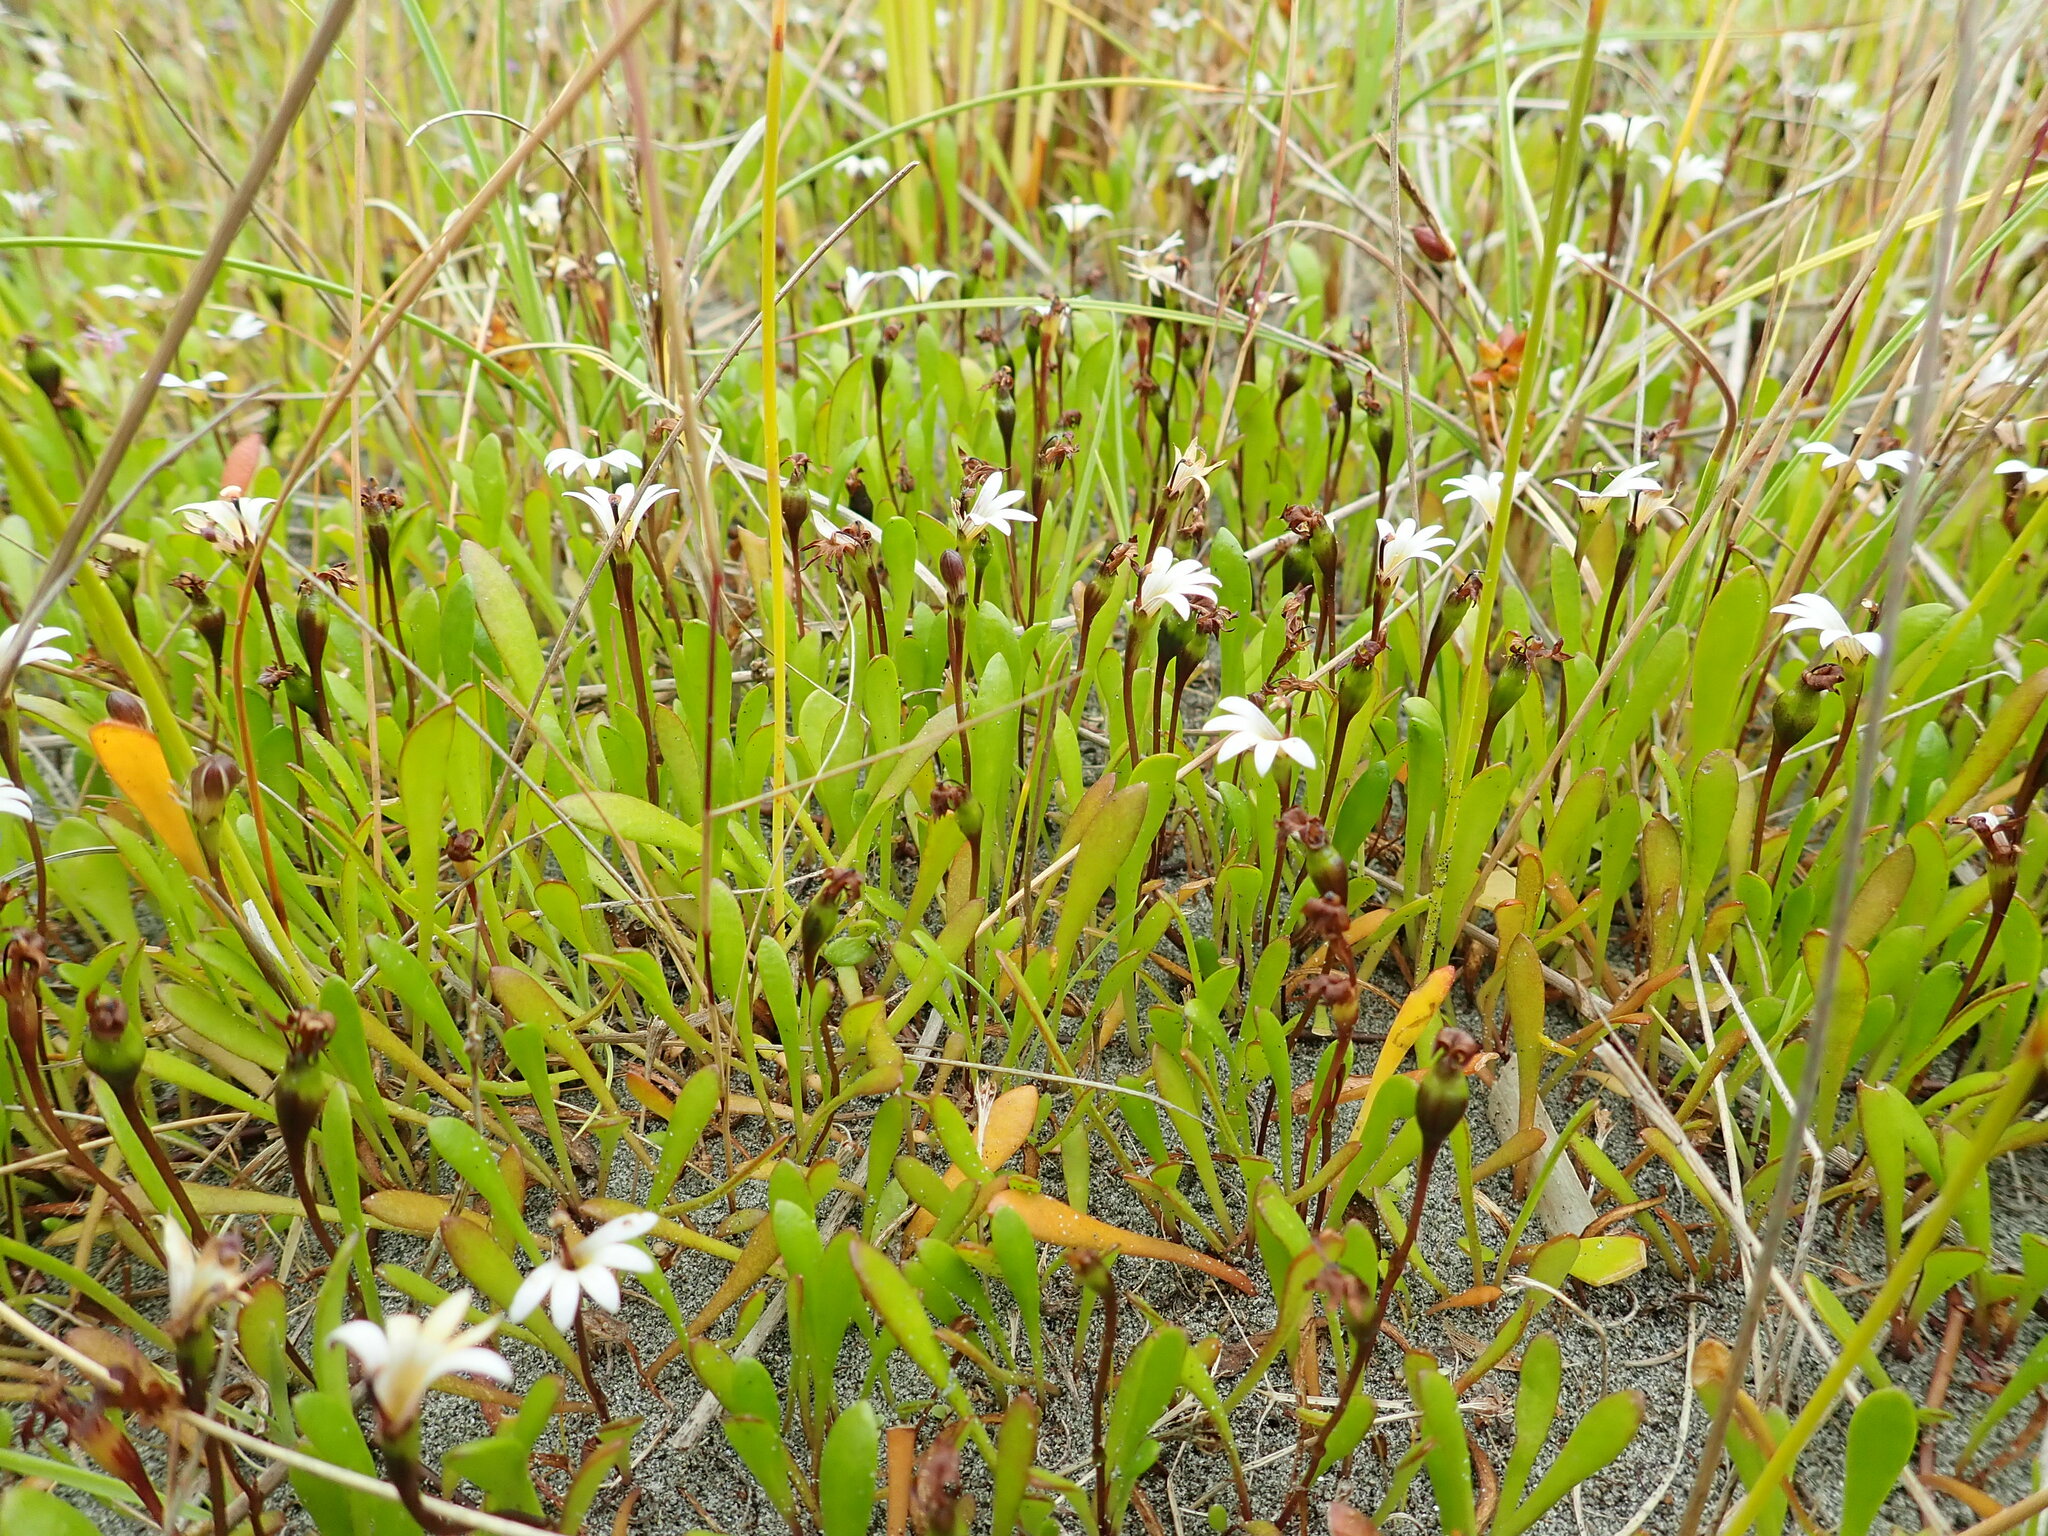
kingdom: Plantae
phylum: Tracheophyta
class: Magnoliopsida
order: Asterales
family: Goodeniaceae
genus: Goodenia
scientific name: Goodenia radicans
